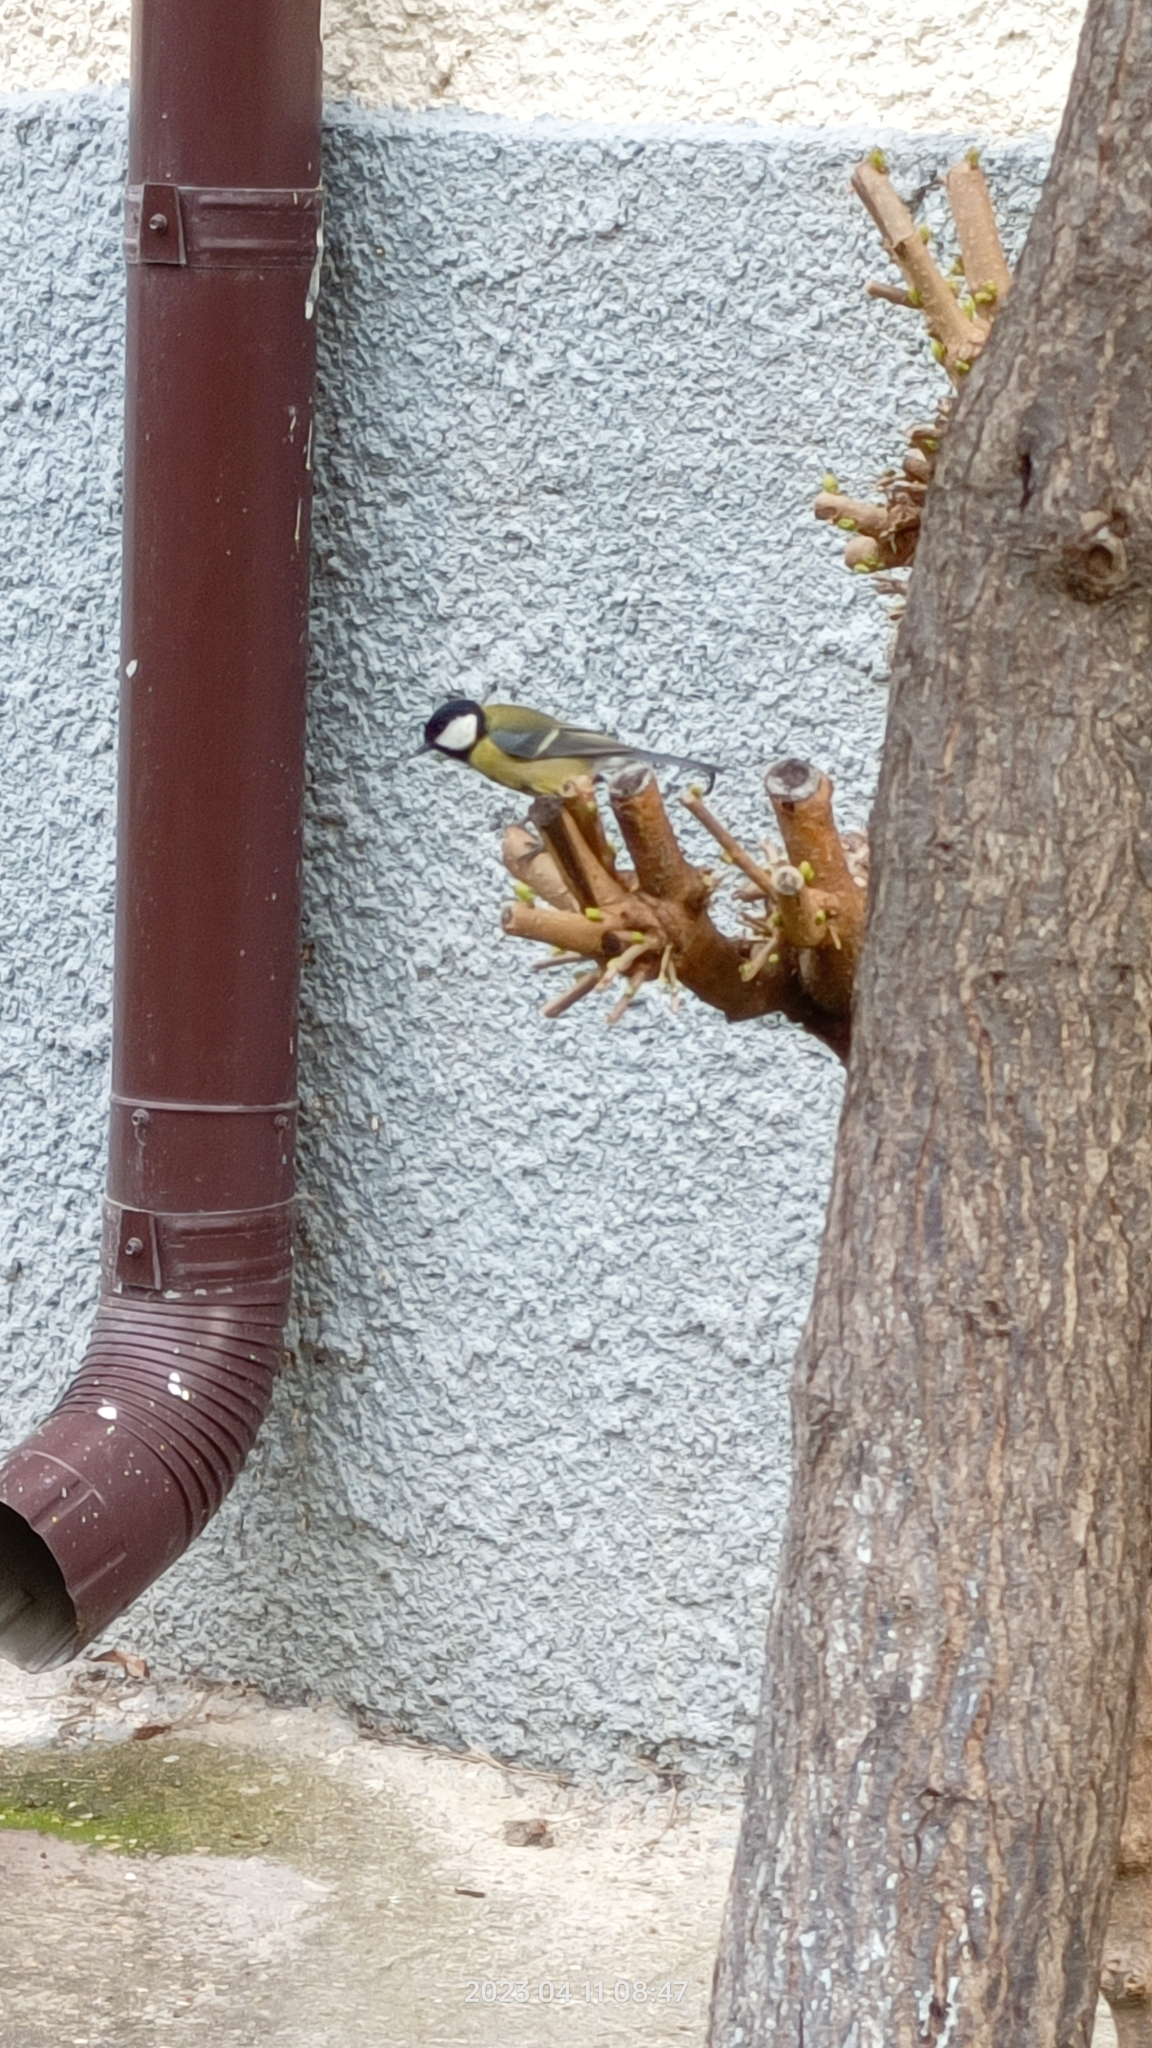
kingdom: Animalia
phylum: Chordata
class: Aves
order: Passeriformes
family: Paridae
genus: Parus
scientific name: Parus major
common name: Great tit
